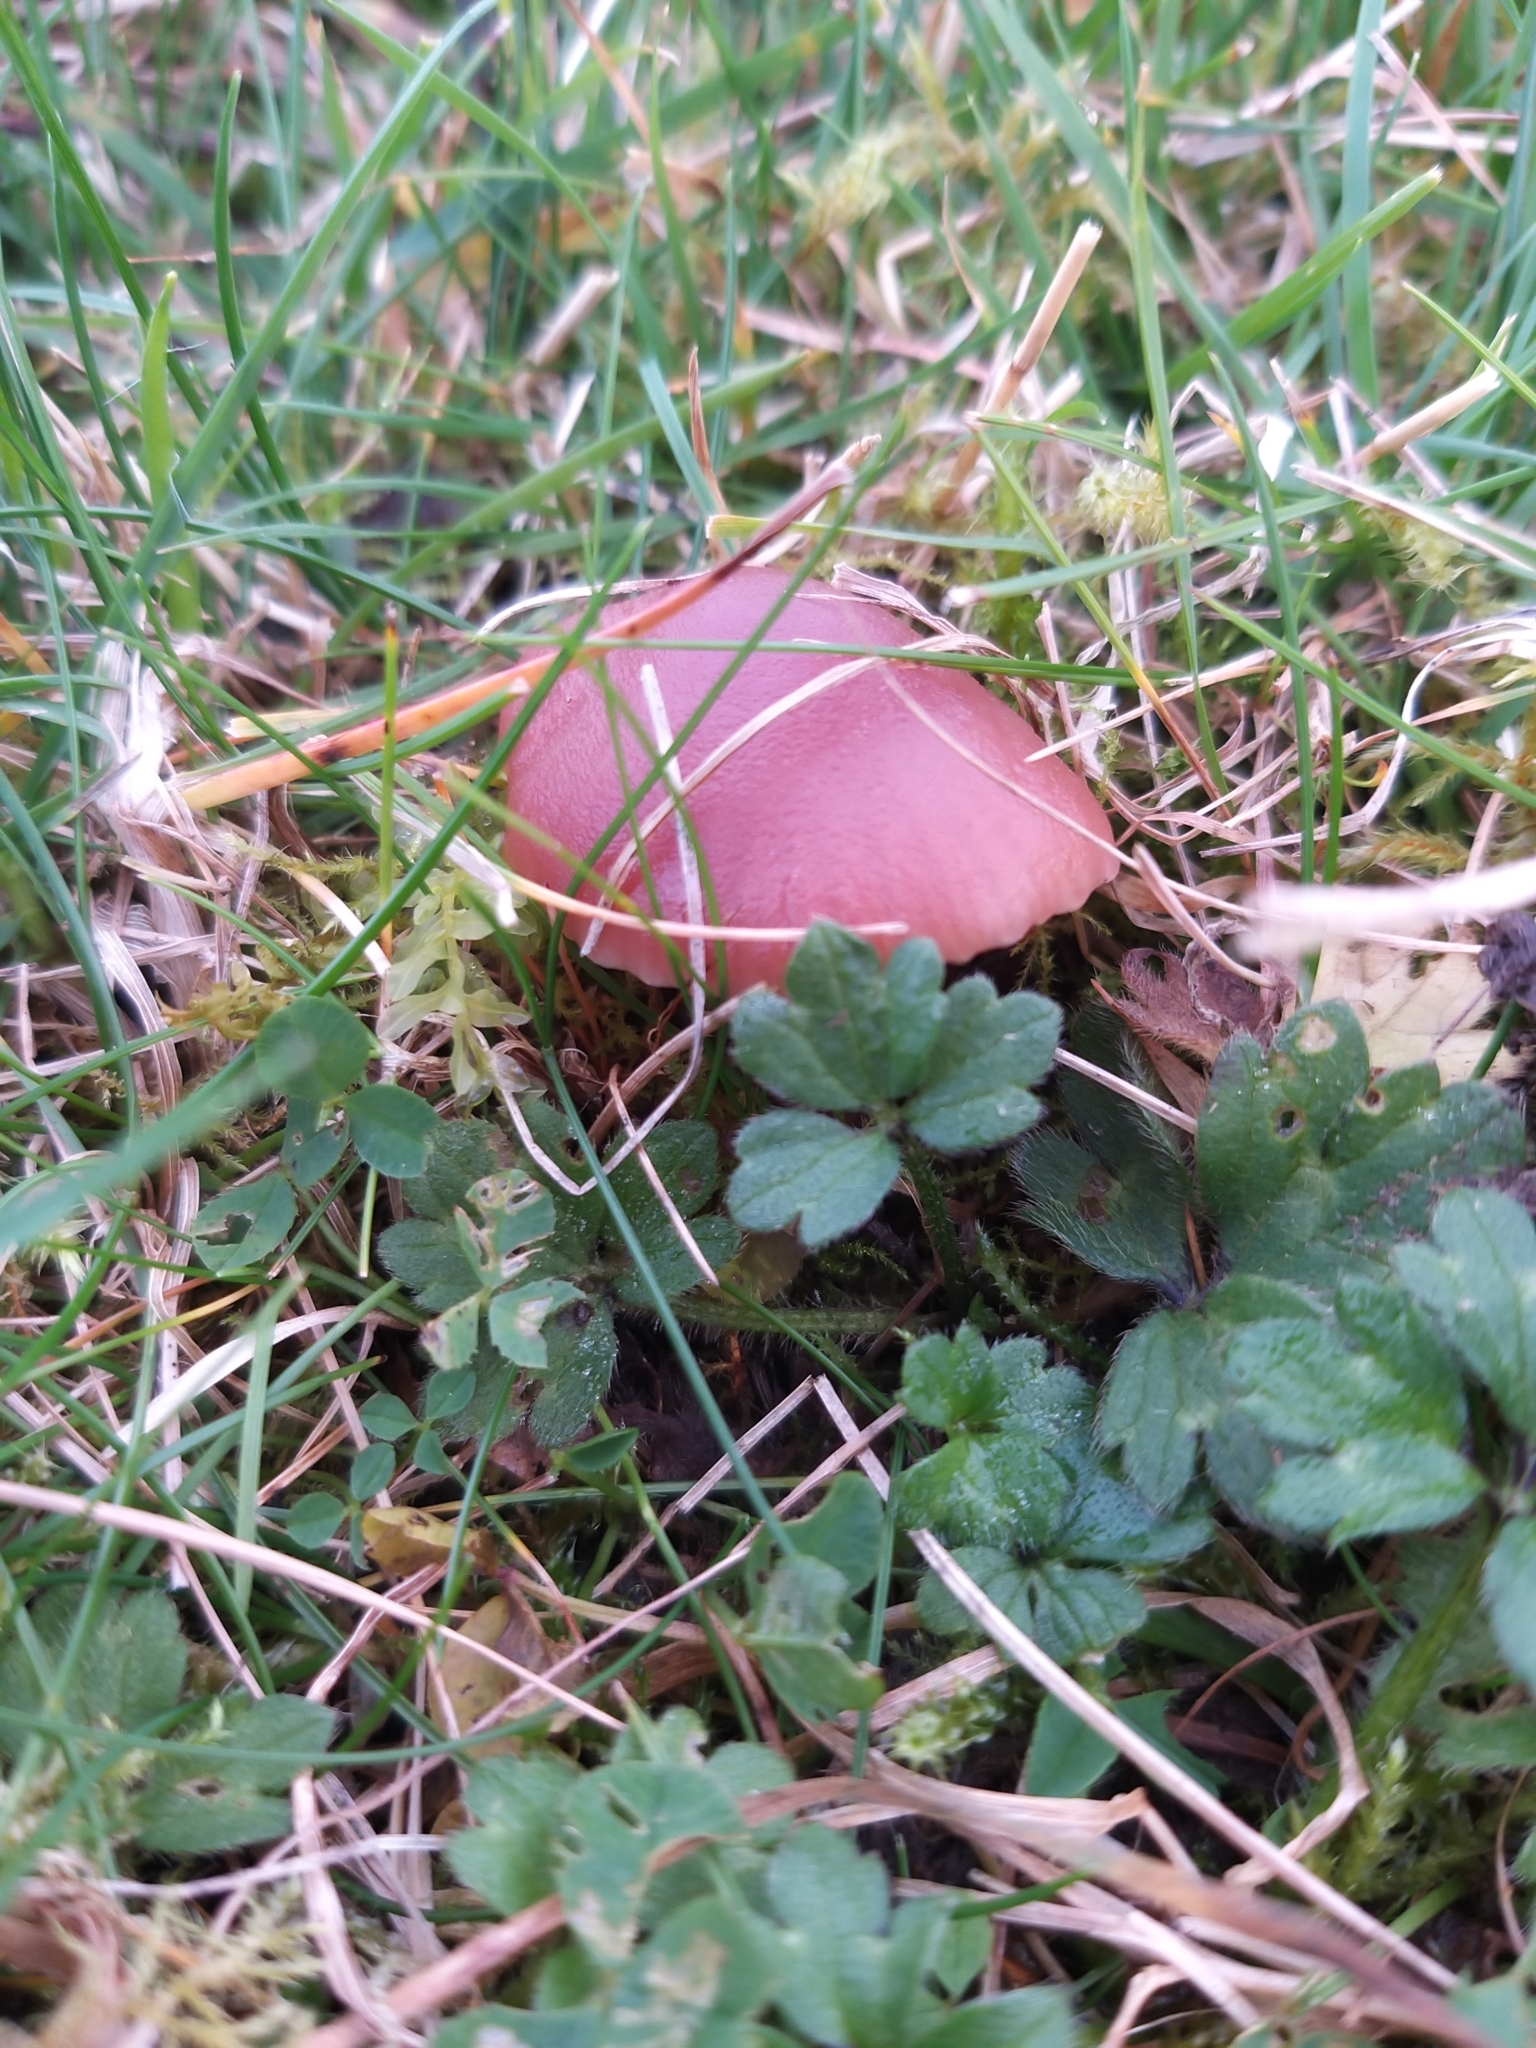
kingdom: Fungi
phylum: Basidiomycota
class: Agaricomycetes
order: Agaricales
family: Hygrophoraceae
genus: Gliophorus
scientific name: Gliophorus reginae
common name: Jubilee waxcap
